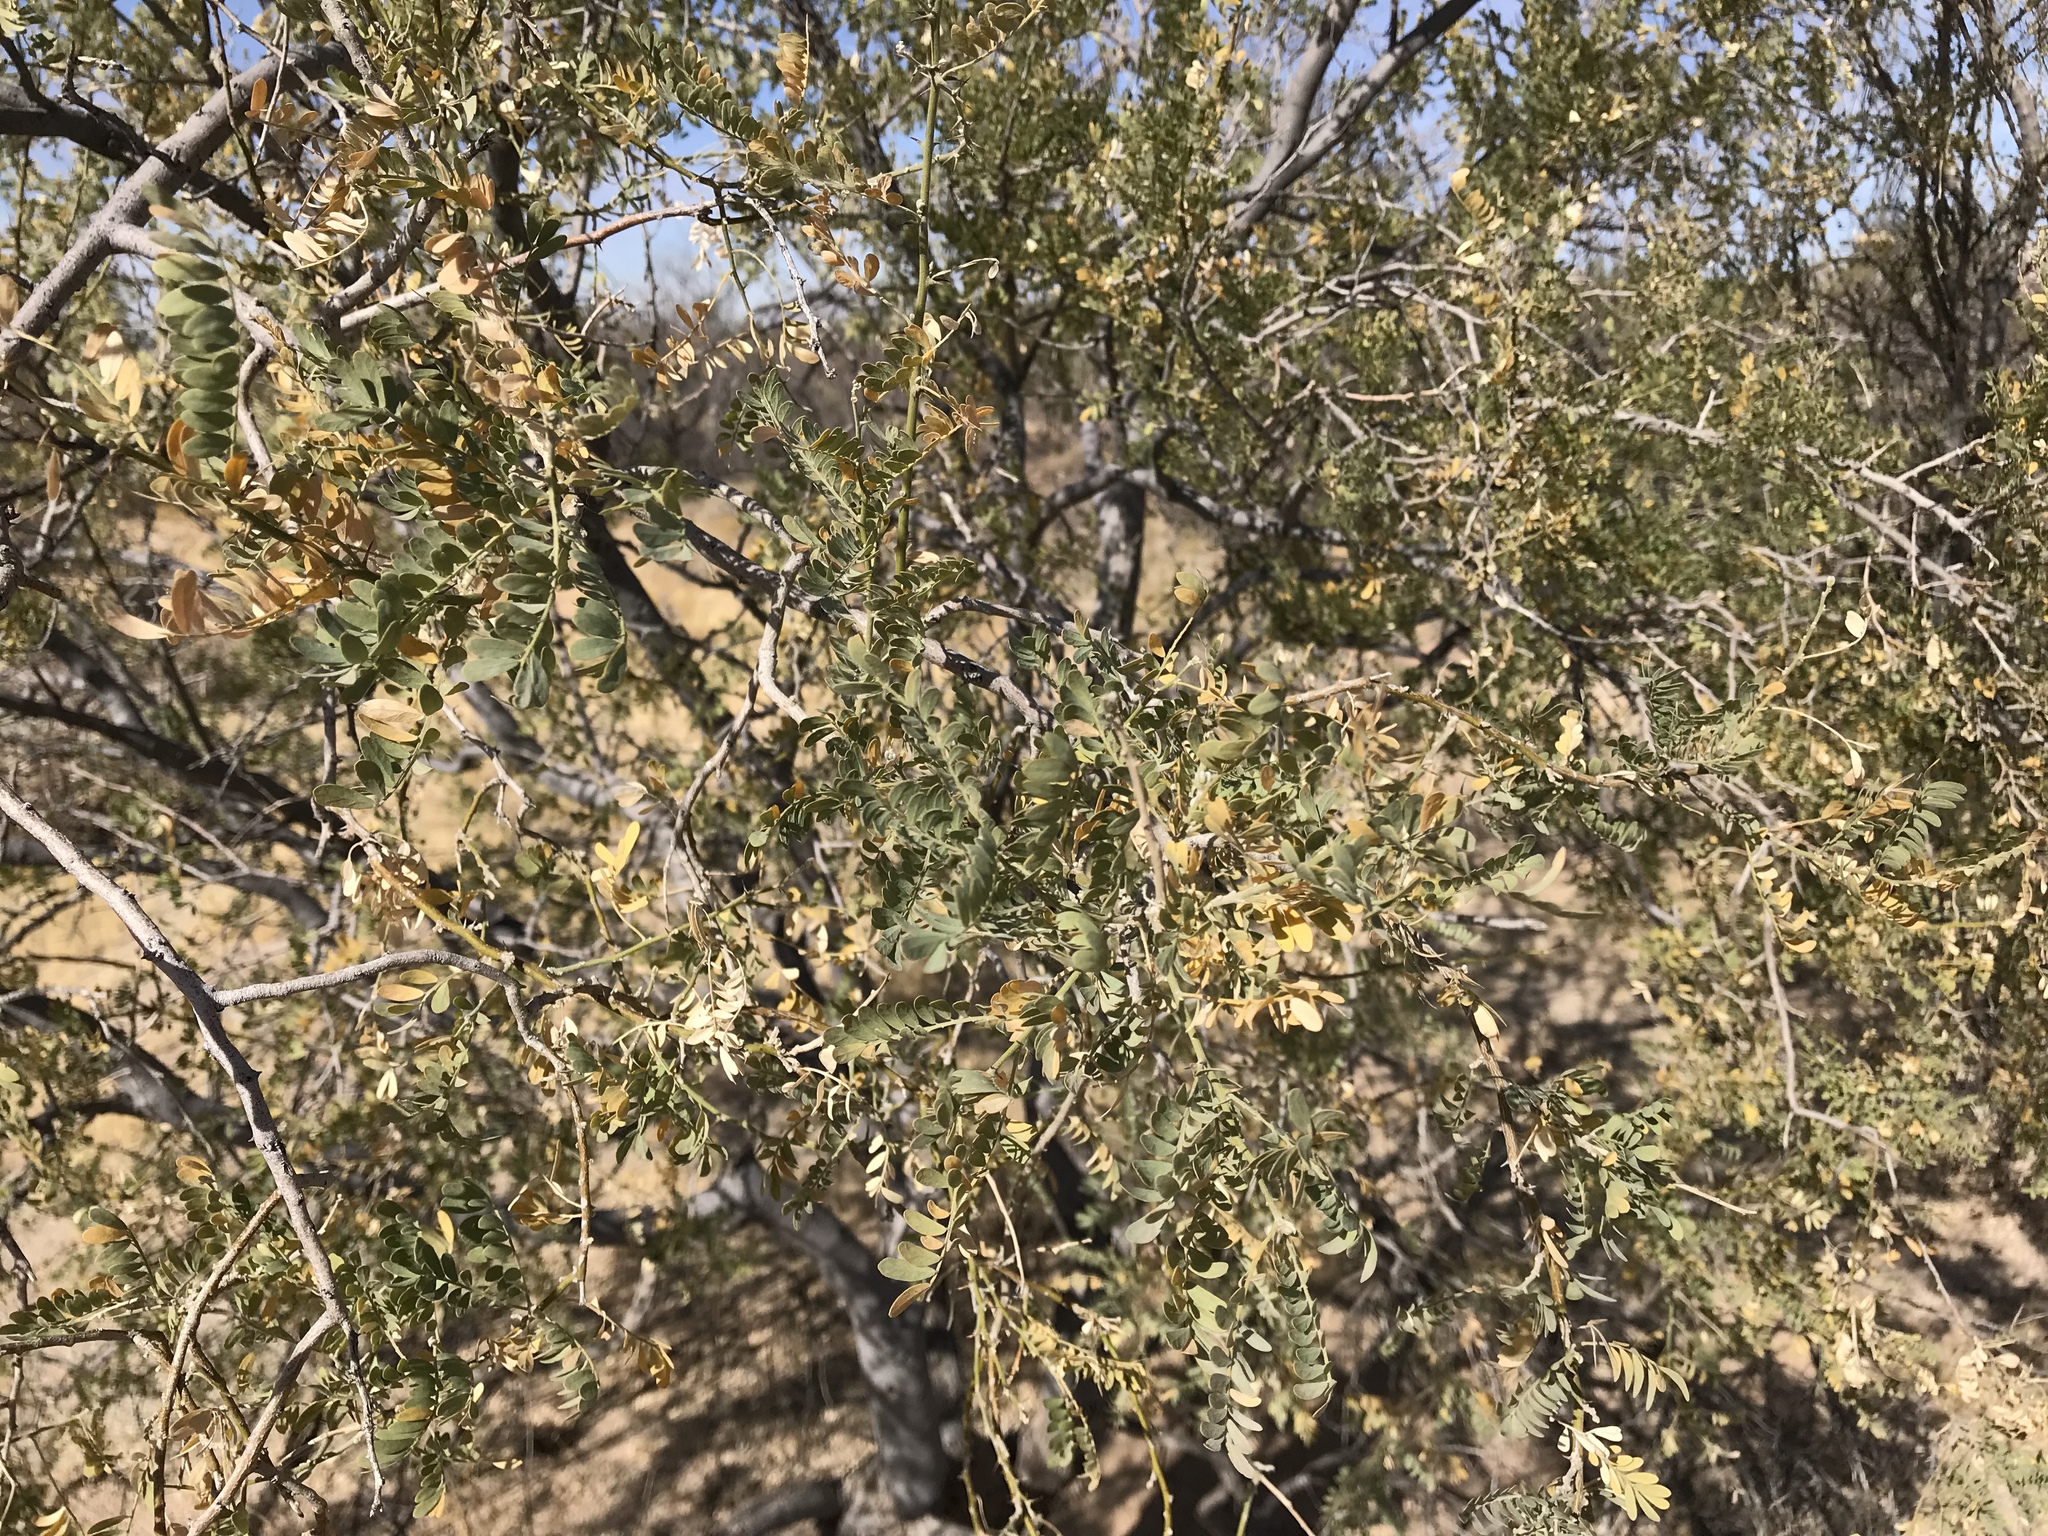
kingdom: Plantae
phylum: Tracheophyta
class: Magnoliopsida
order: Fabales
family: Fabaceae
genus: Olneya
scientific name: Olneya tesota
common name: Desert ironwood
